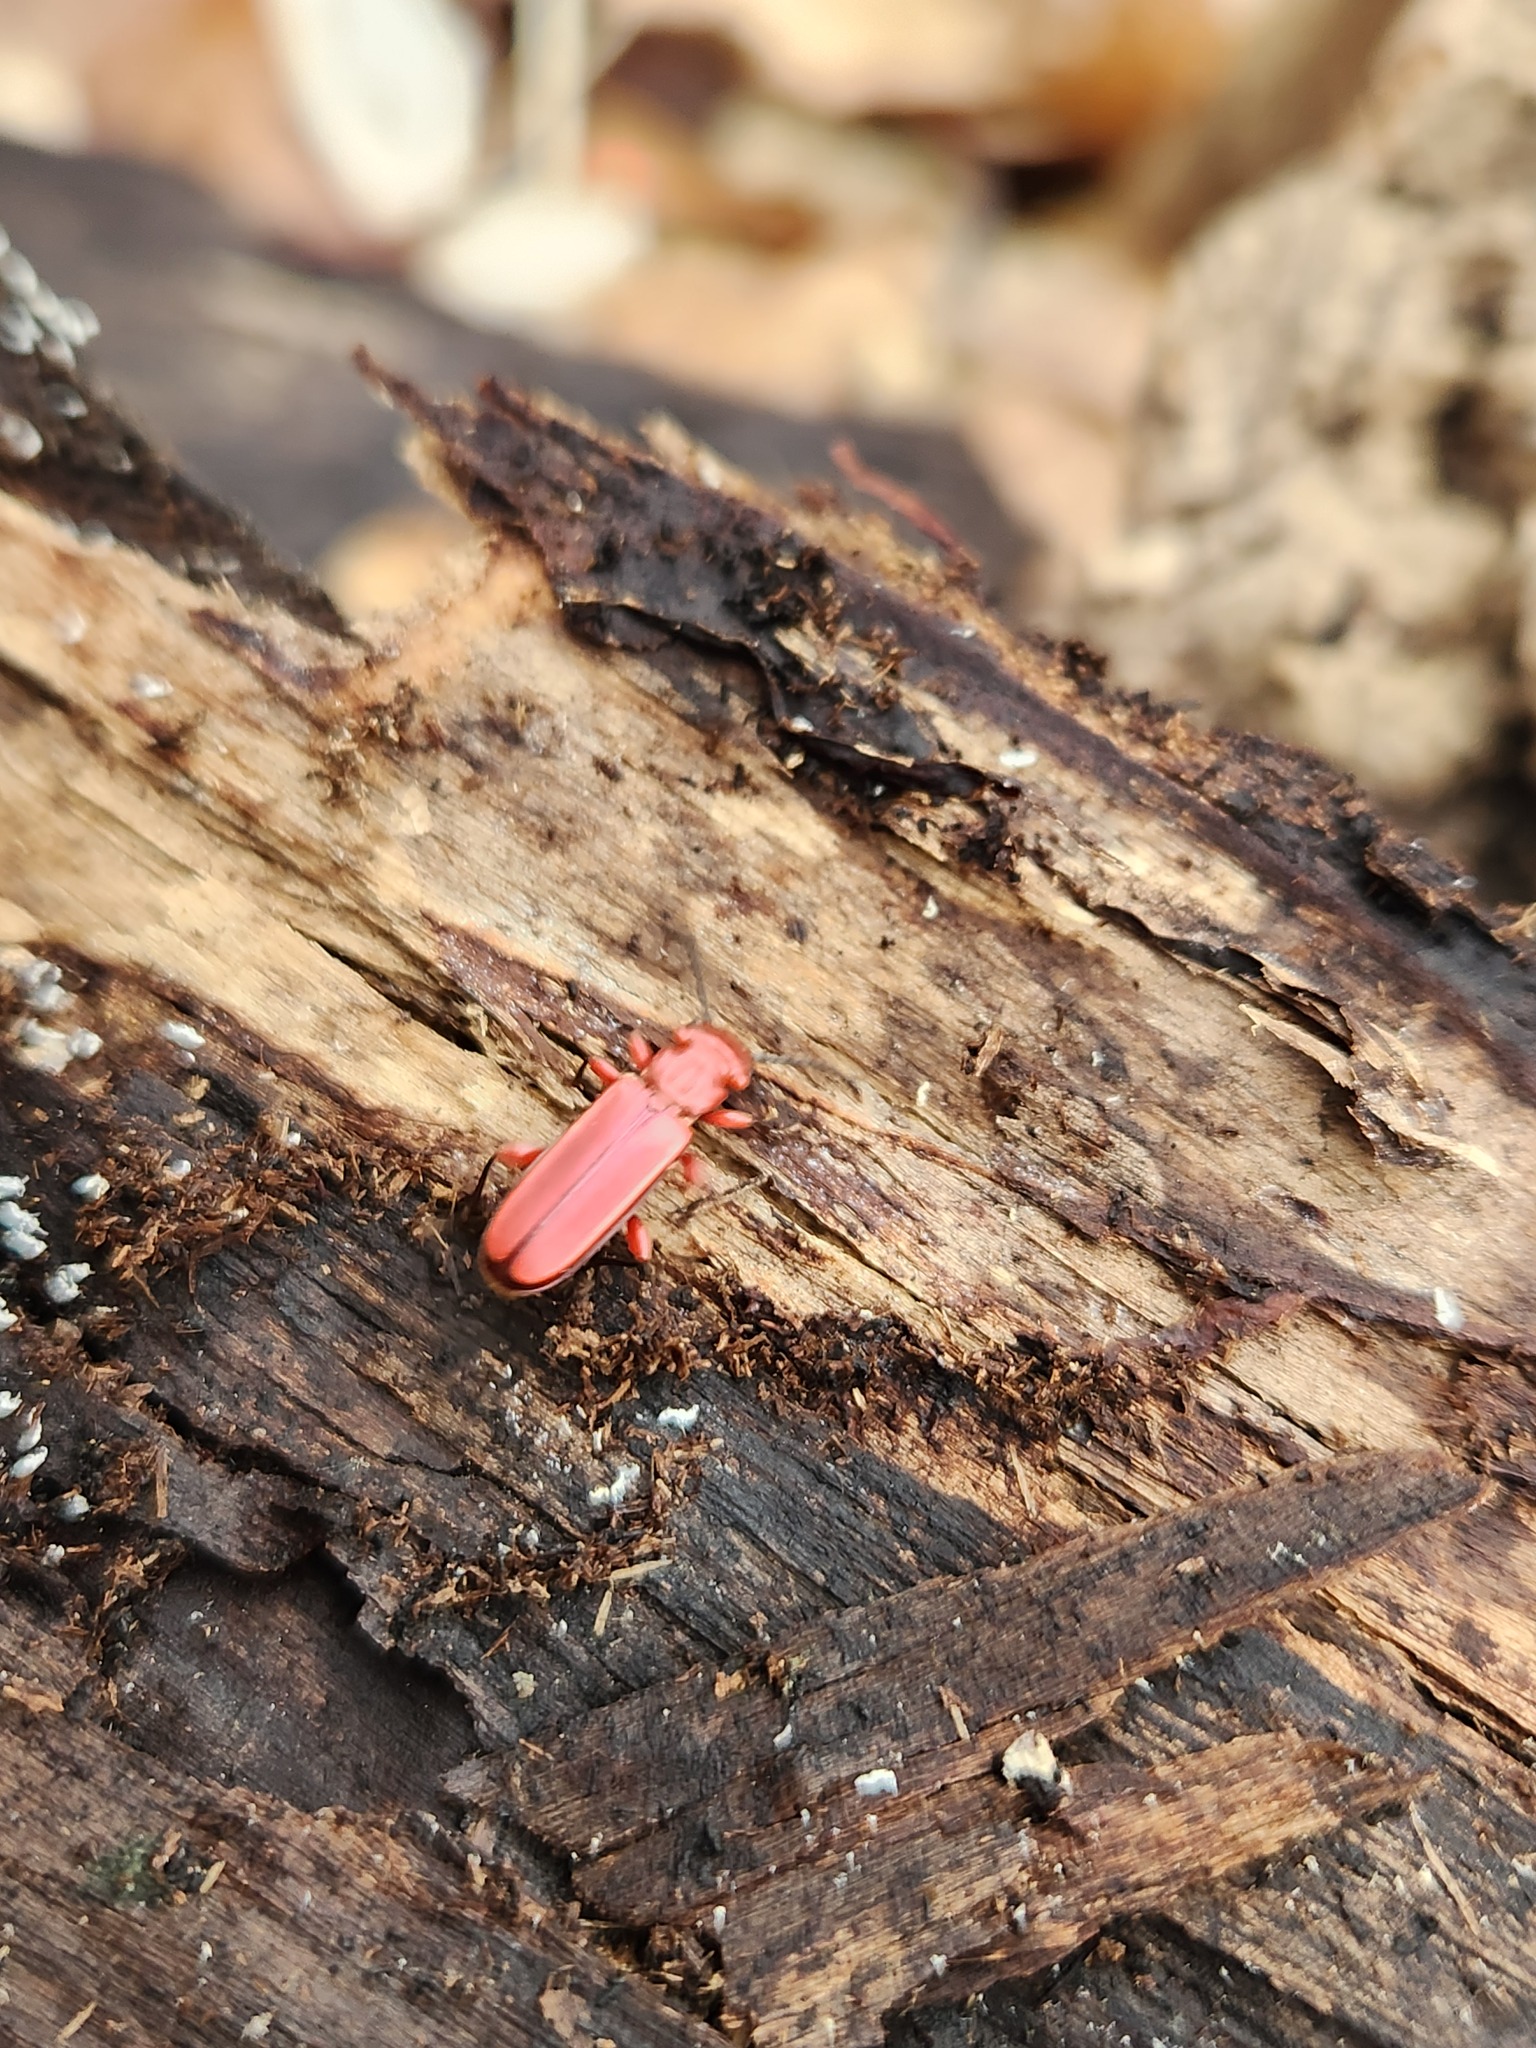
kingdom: Animalia
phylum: Arthropoda
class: Insecta
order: Coleoptera
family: Cucujidae
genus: Cucujus
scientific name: Cucujus clavipes
